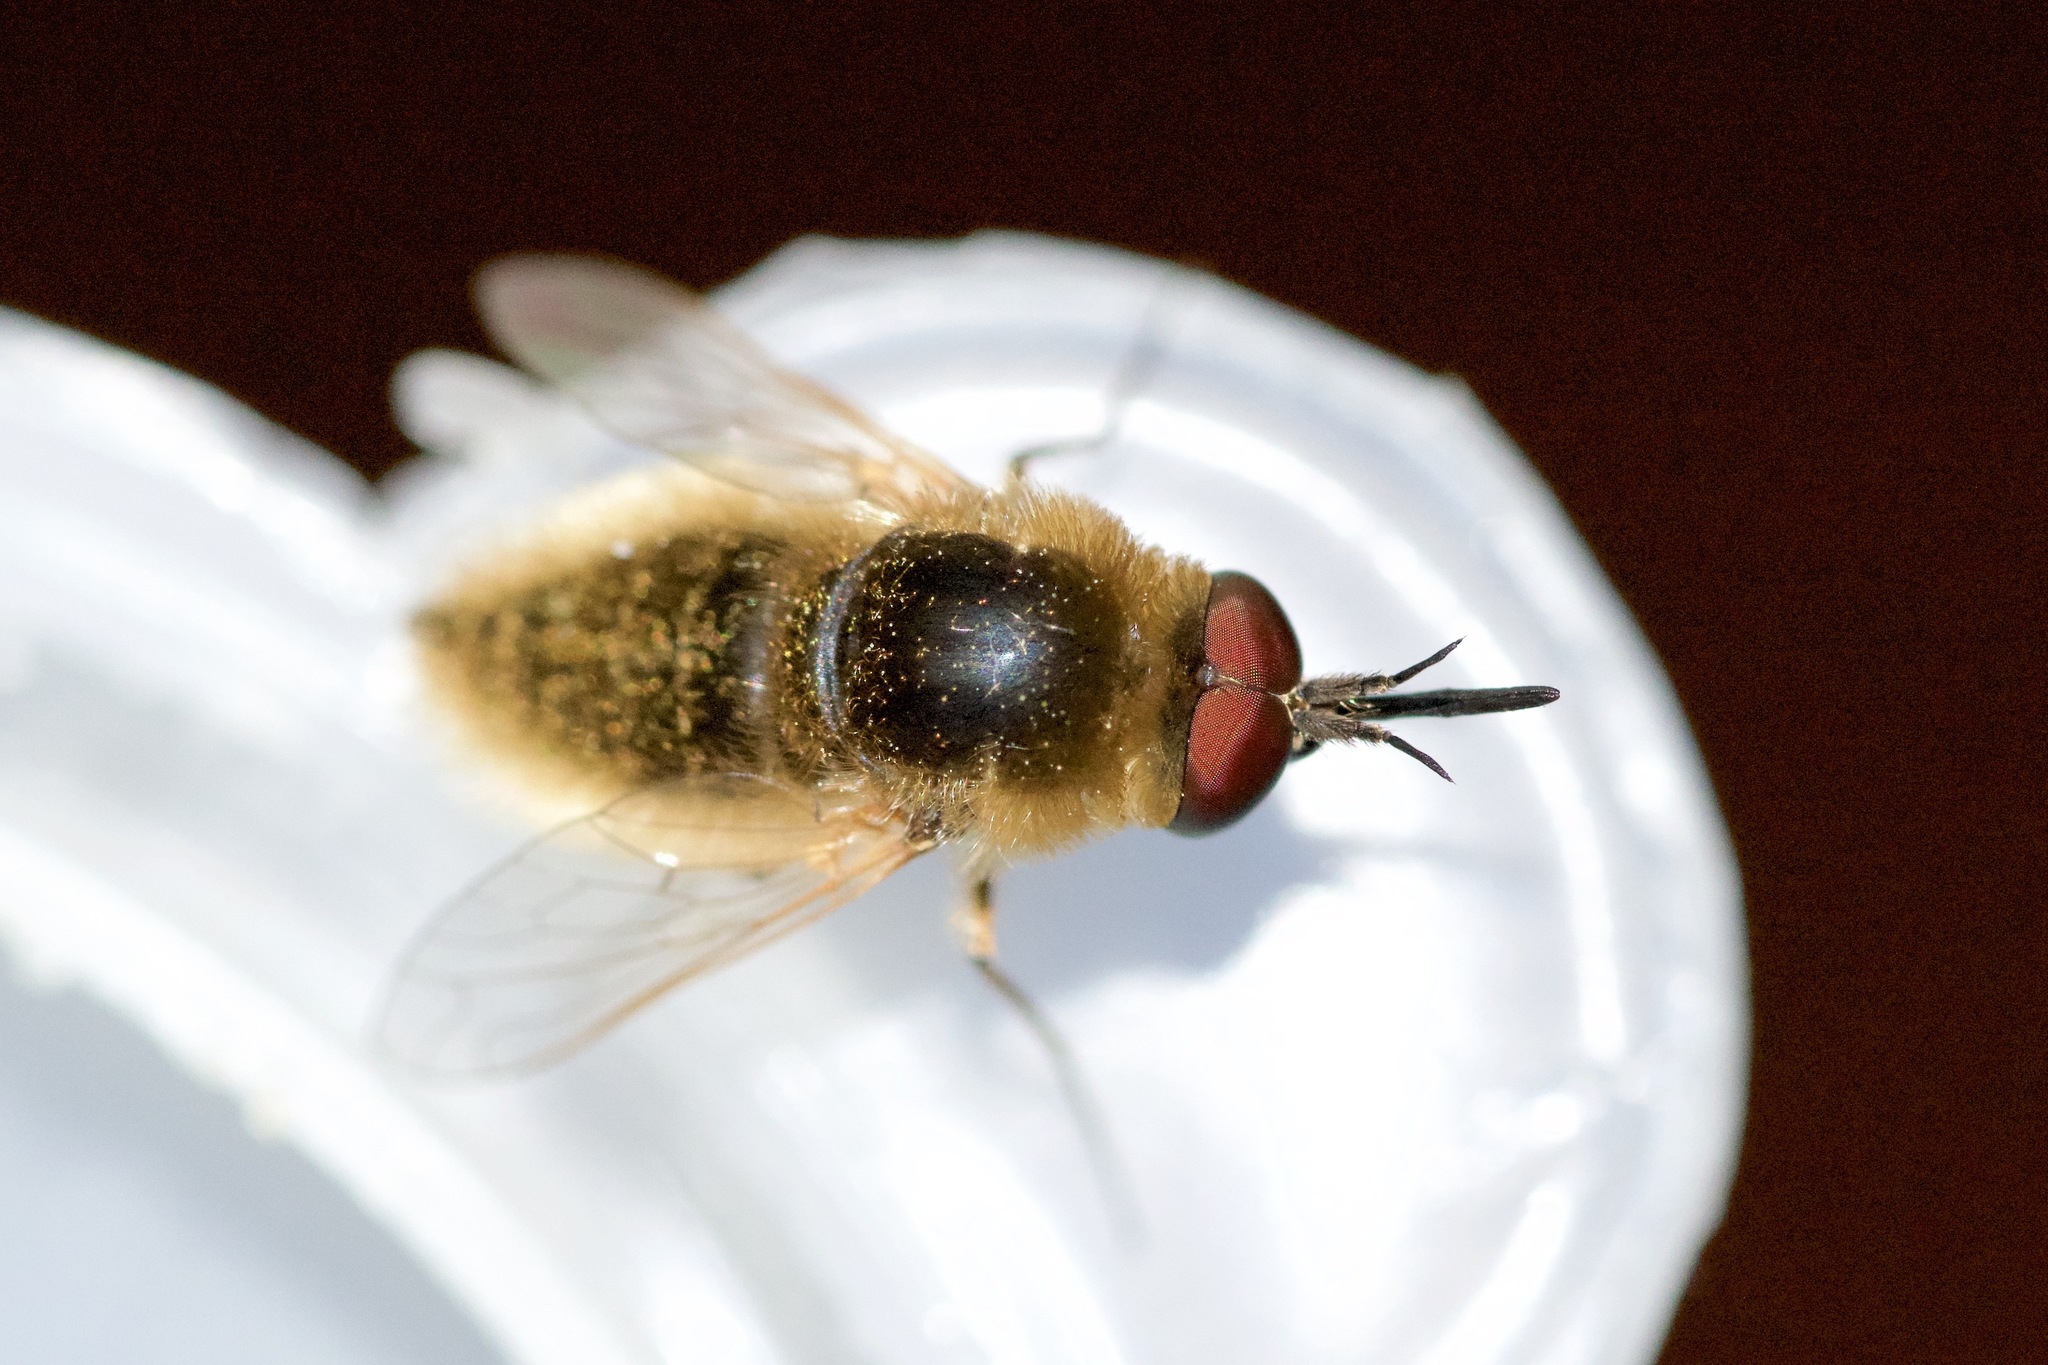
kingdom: Animalia
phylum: Arthropoda
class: Insecta
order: Diptera
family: Bombyliidae
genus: Sparnopolius
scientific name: Sparnopolius confusus
